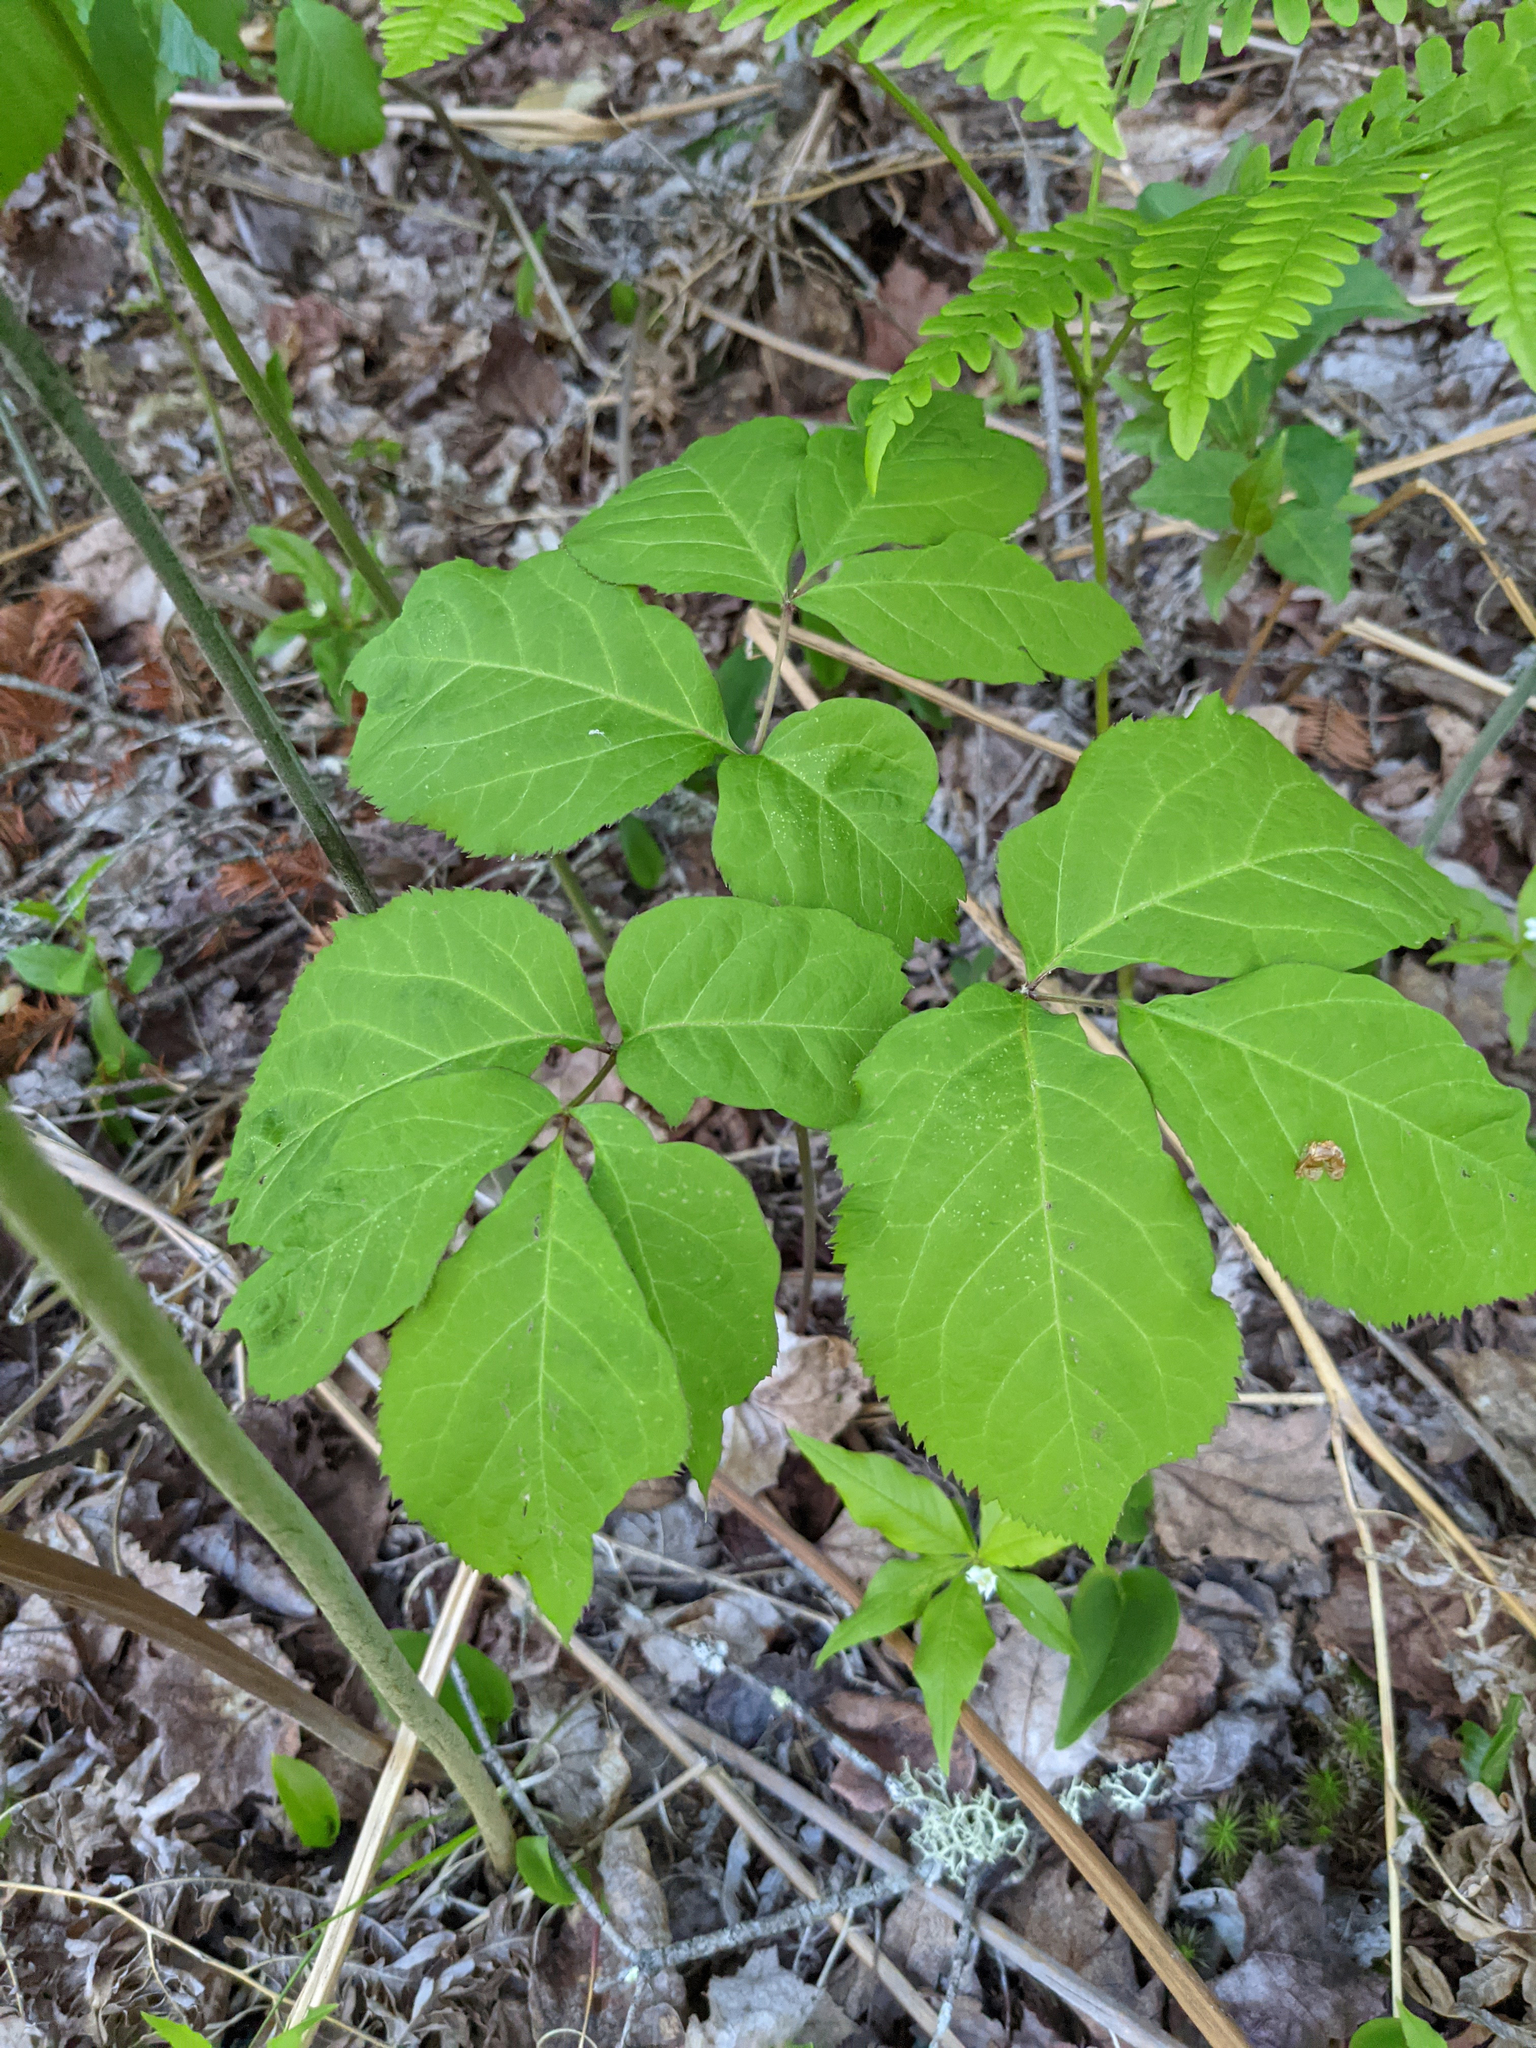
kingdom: Plantae
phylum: Tracheophyta
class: Magnoliopsida
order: Apiales
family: Araliaceae
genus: Aralia
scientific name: Aralia nudicaulis
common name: Wild sarsaparilla
